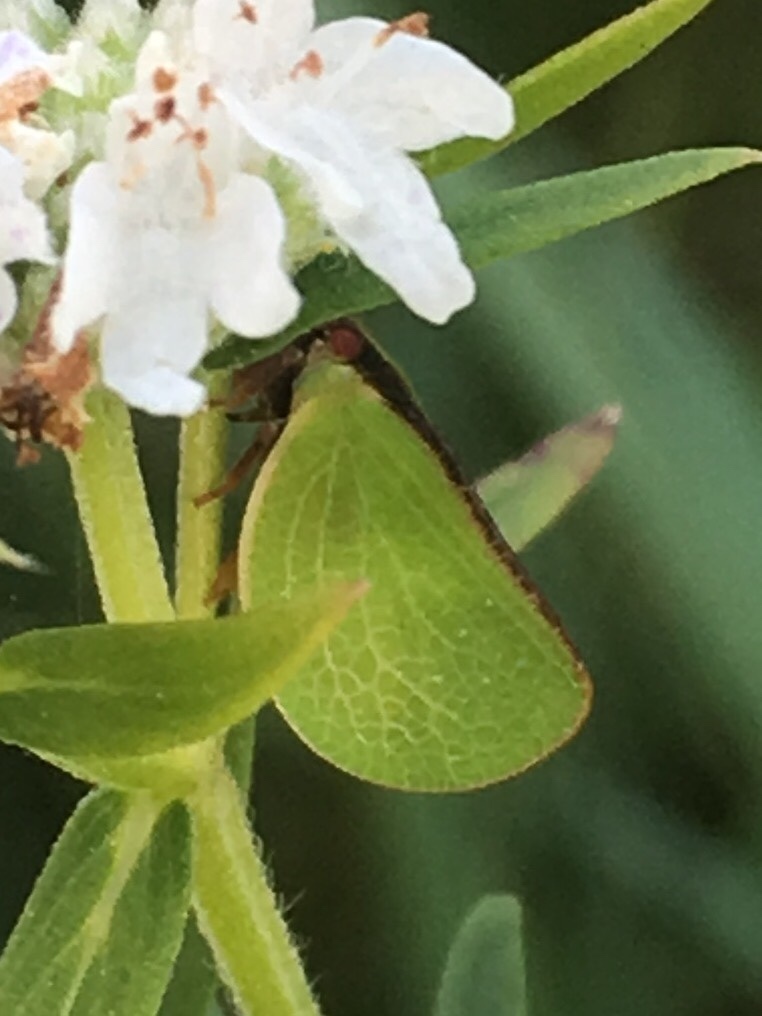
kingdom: Animalia
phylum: Arthropoda
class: Insecta
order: Hemiptera
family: Acanaloniidae
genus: Acanalonia
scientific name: Acanalonia bivittata
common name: Two-striped planthopper
